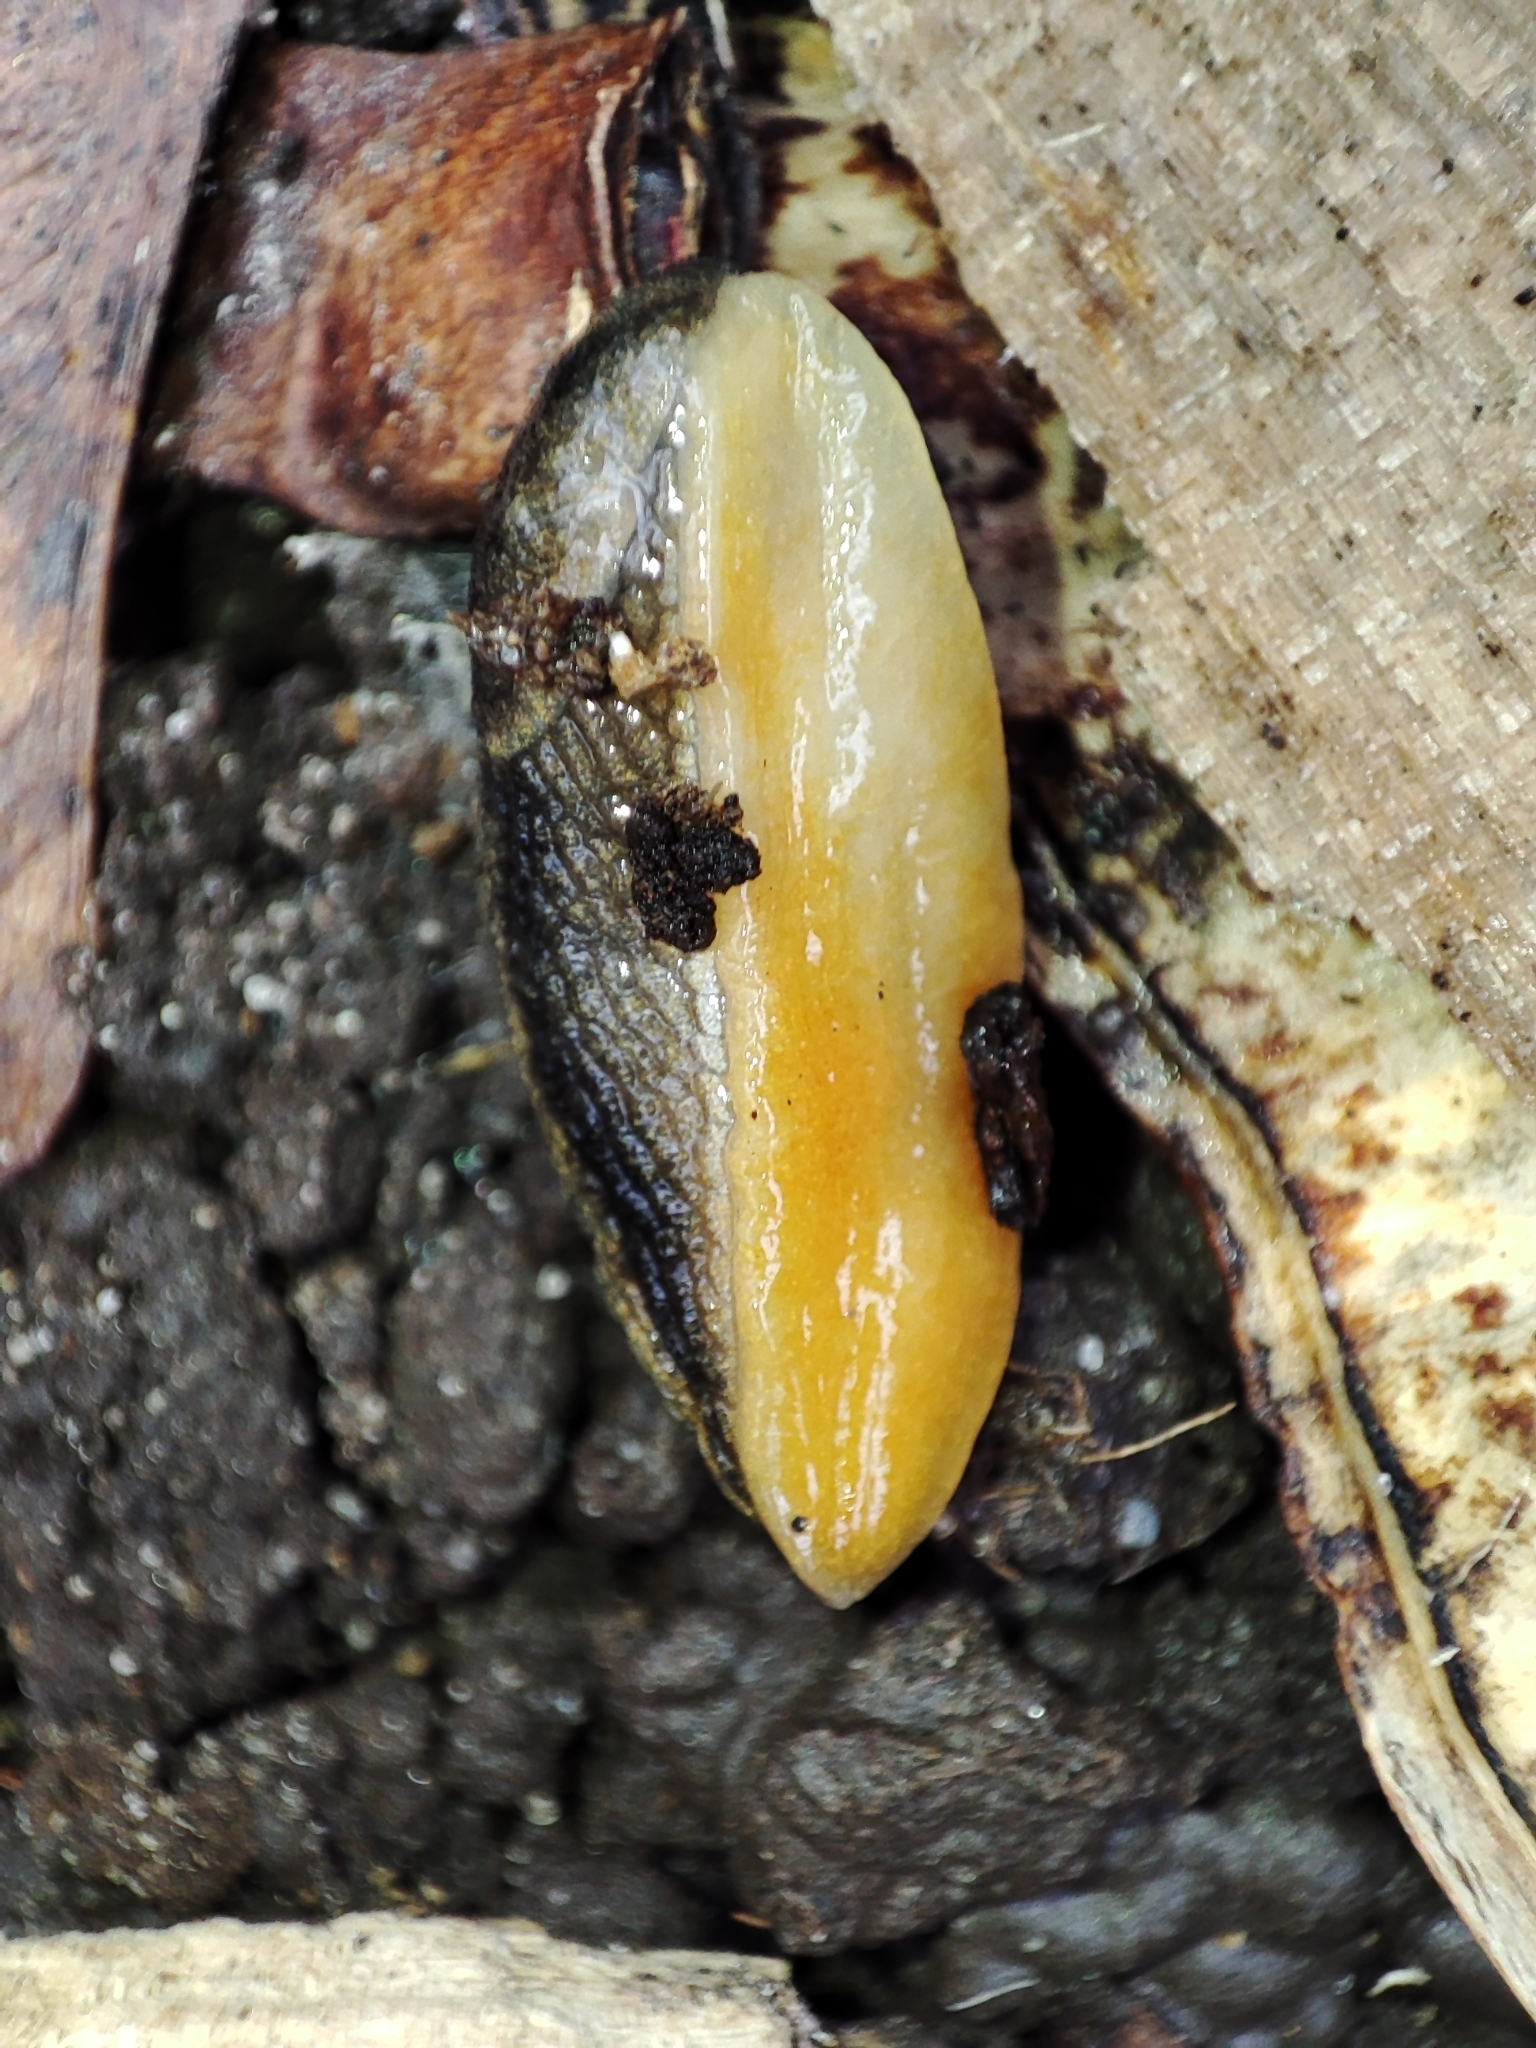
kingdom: Animalia
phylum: Mollusca
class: Gastropoda
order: Stylommatophora
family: Arionidae
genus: Arion
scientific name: Arion distinctus
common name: Darkface arion
